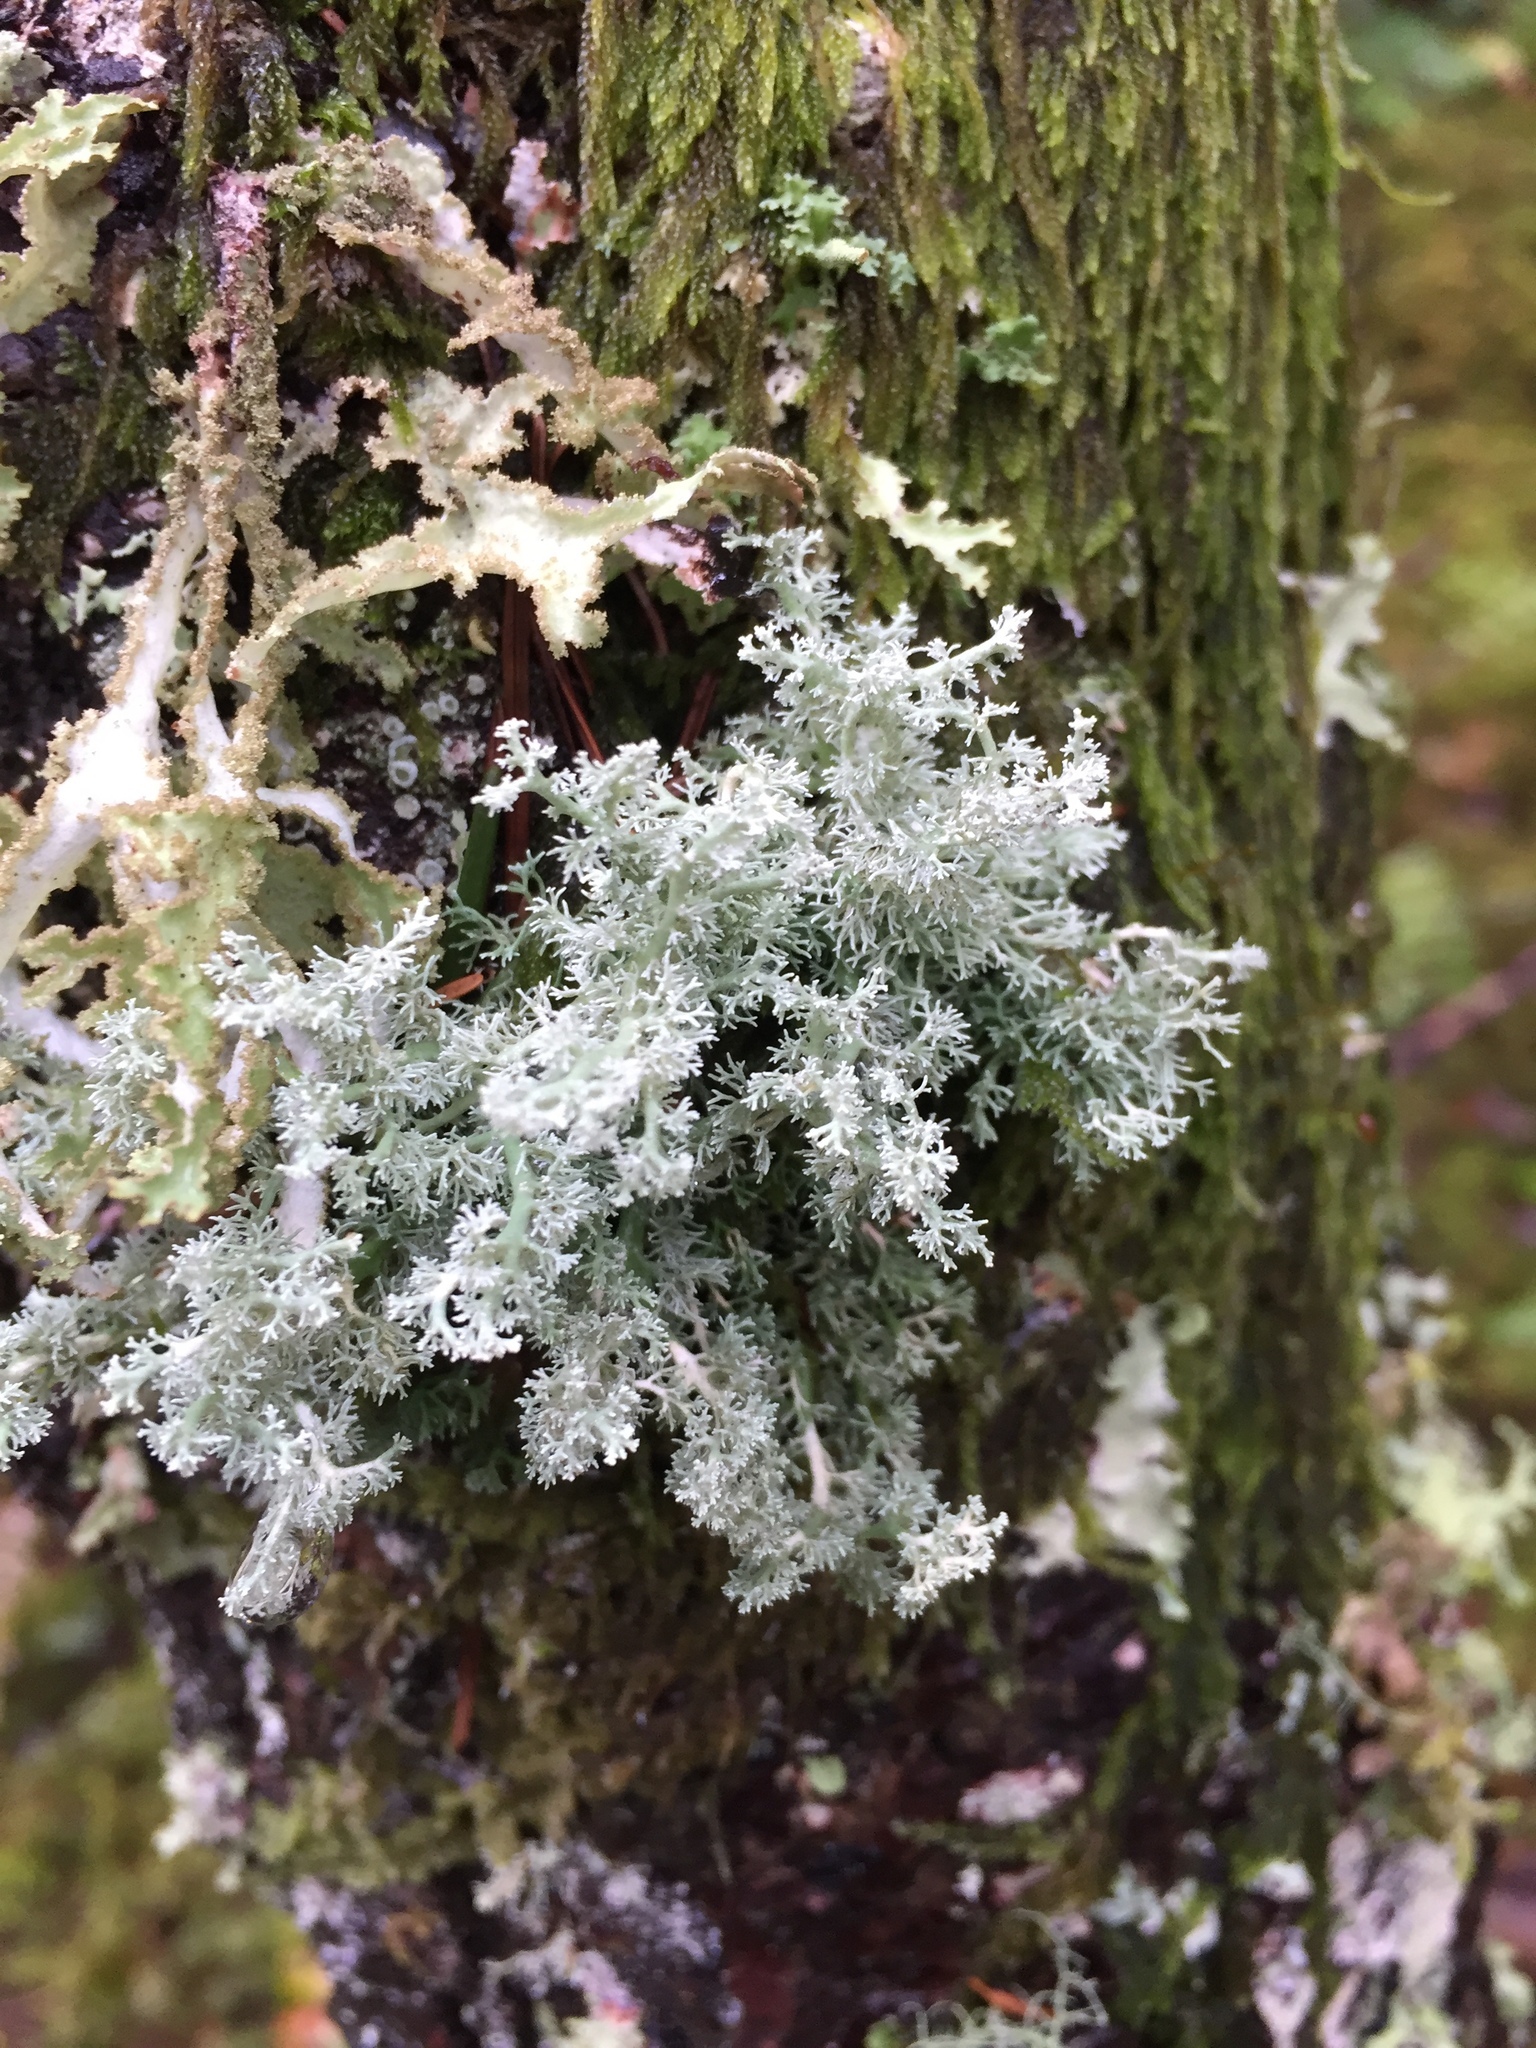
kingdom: Fungi
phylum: Ascomycota
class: Lecanoromycetes
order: Lecanorales
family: Sphaerophoraceae
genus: Sphaerophorus
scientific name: Sphaerophorus globosus
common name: Globe ball lichen
